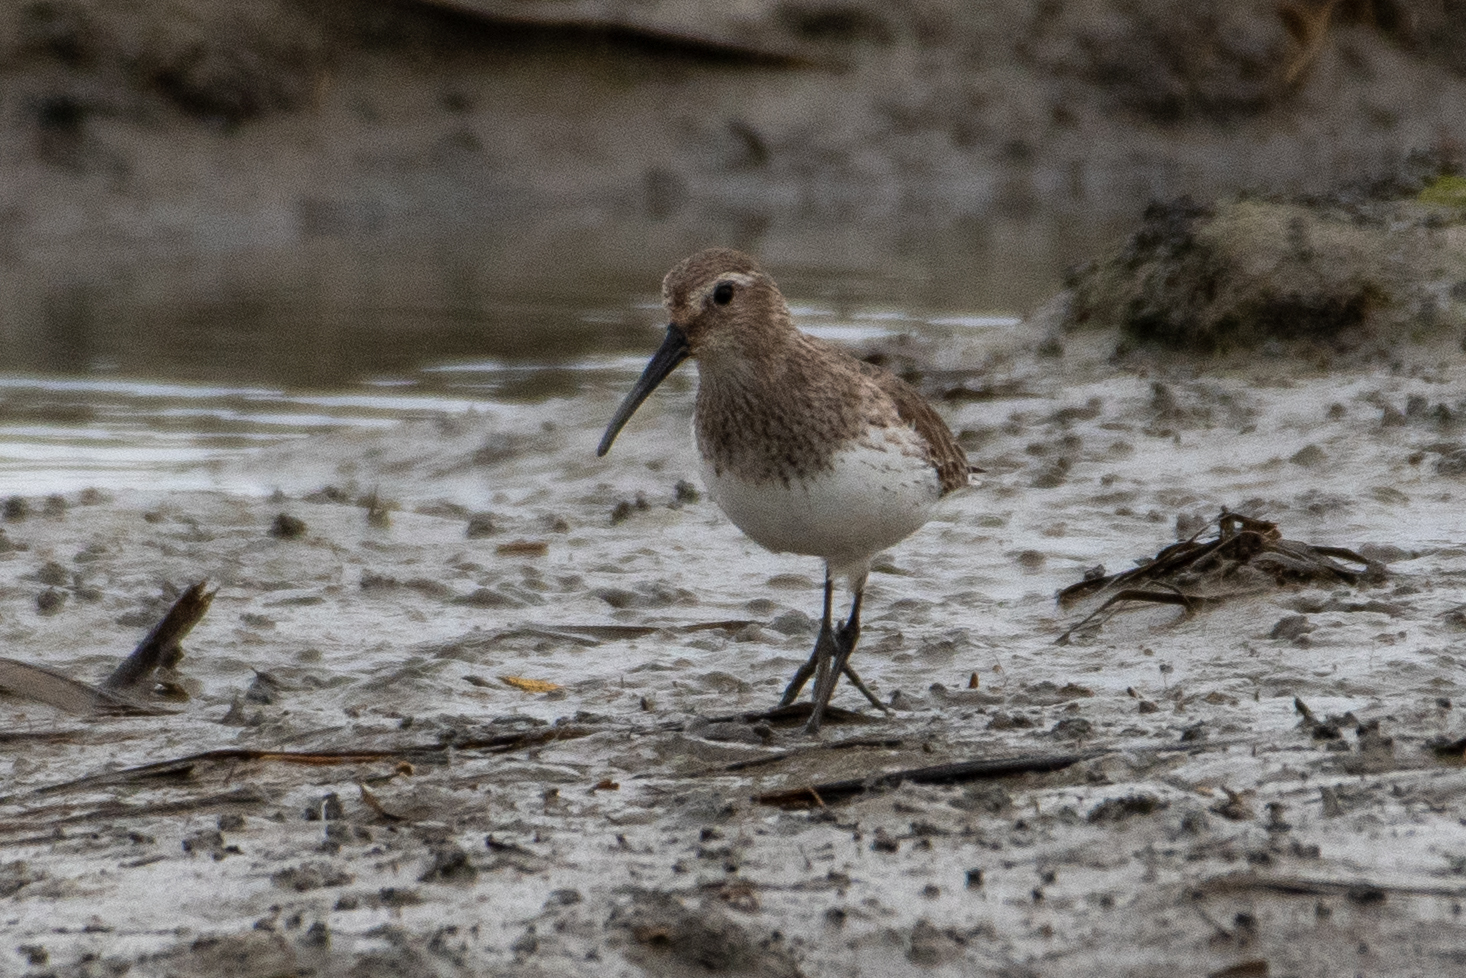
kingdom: Animalia
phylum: Chordata
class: Aves
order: Charadriiformes
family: Scolopacidae
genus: Calidris
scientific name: Calidris alpina
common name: Dunlin
